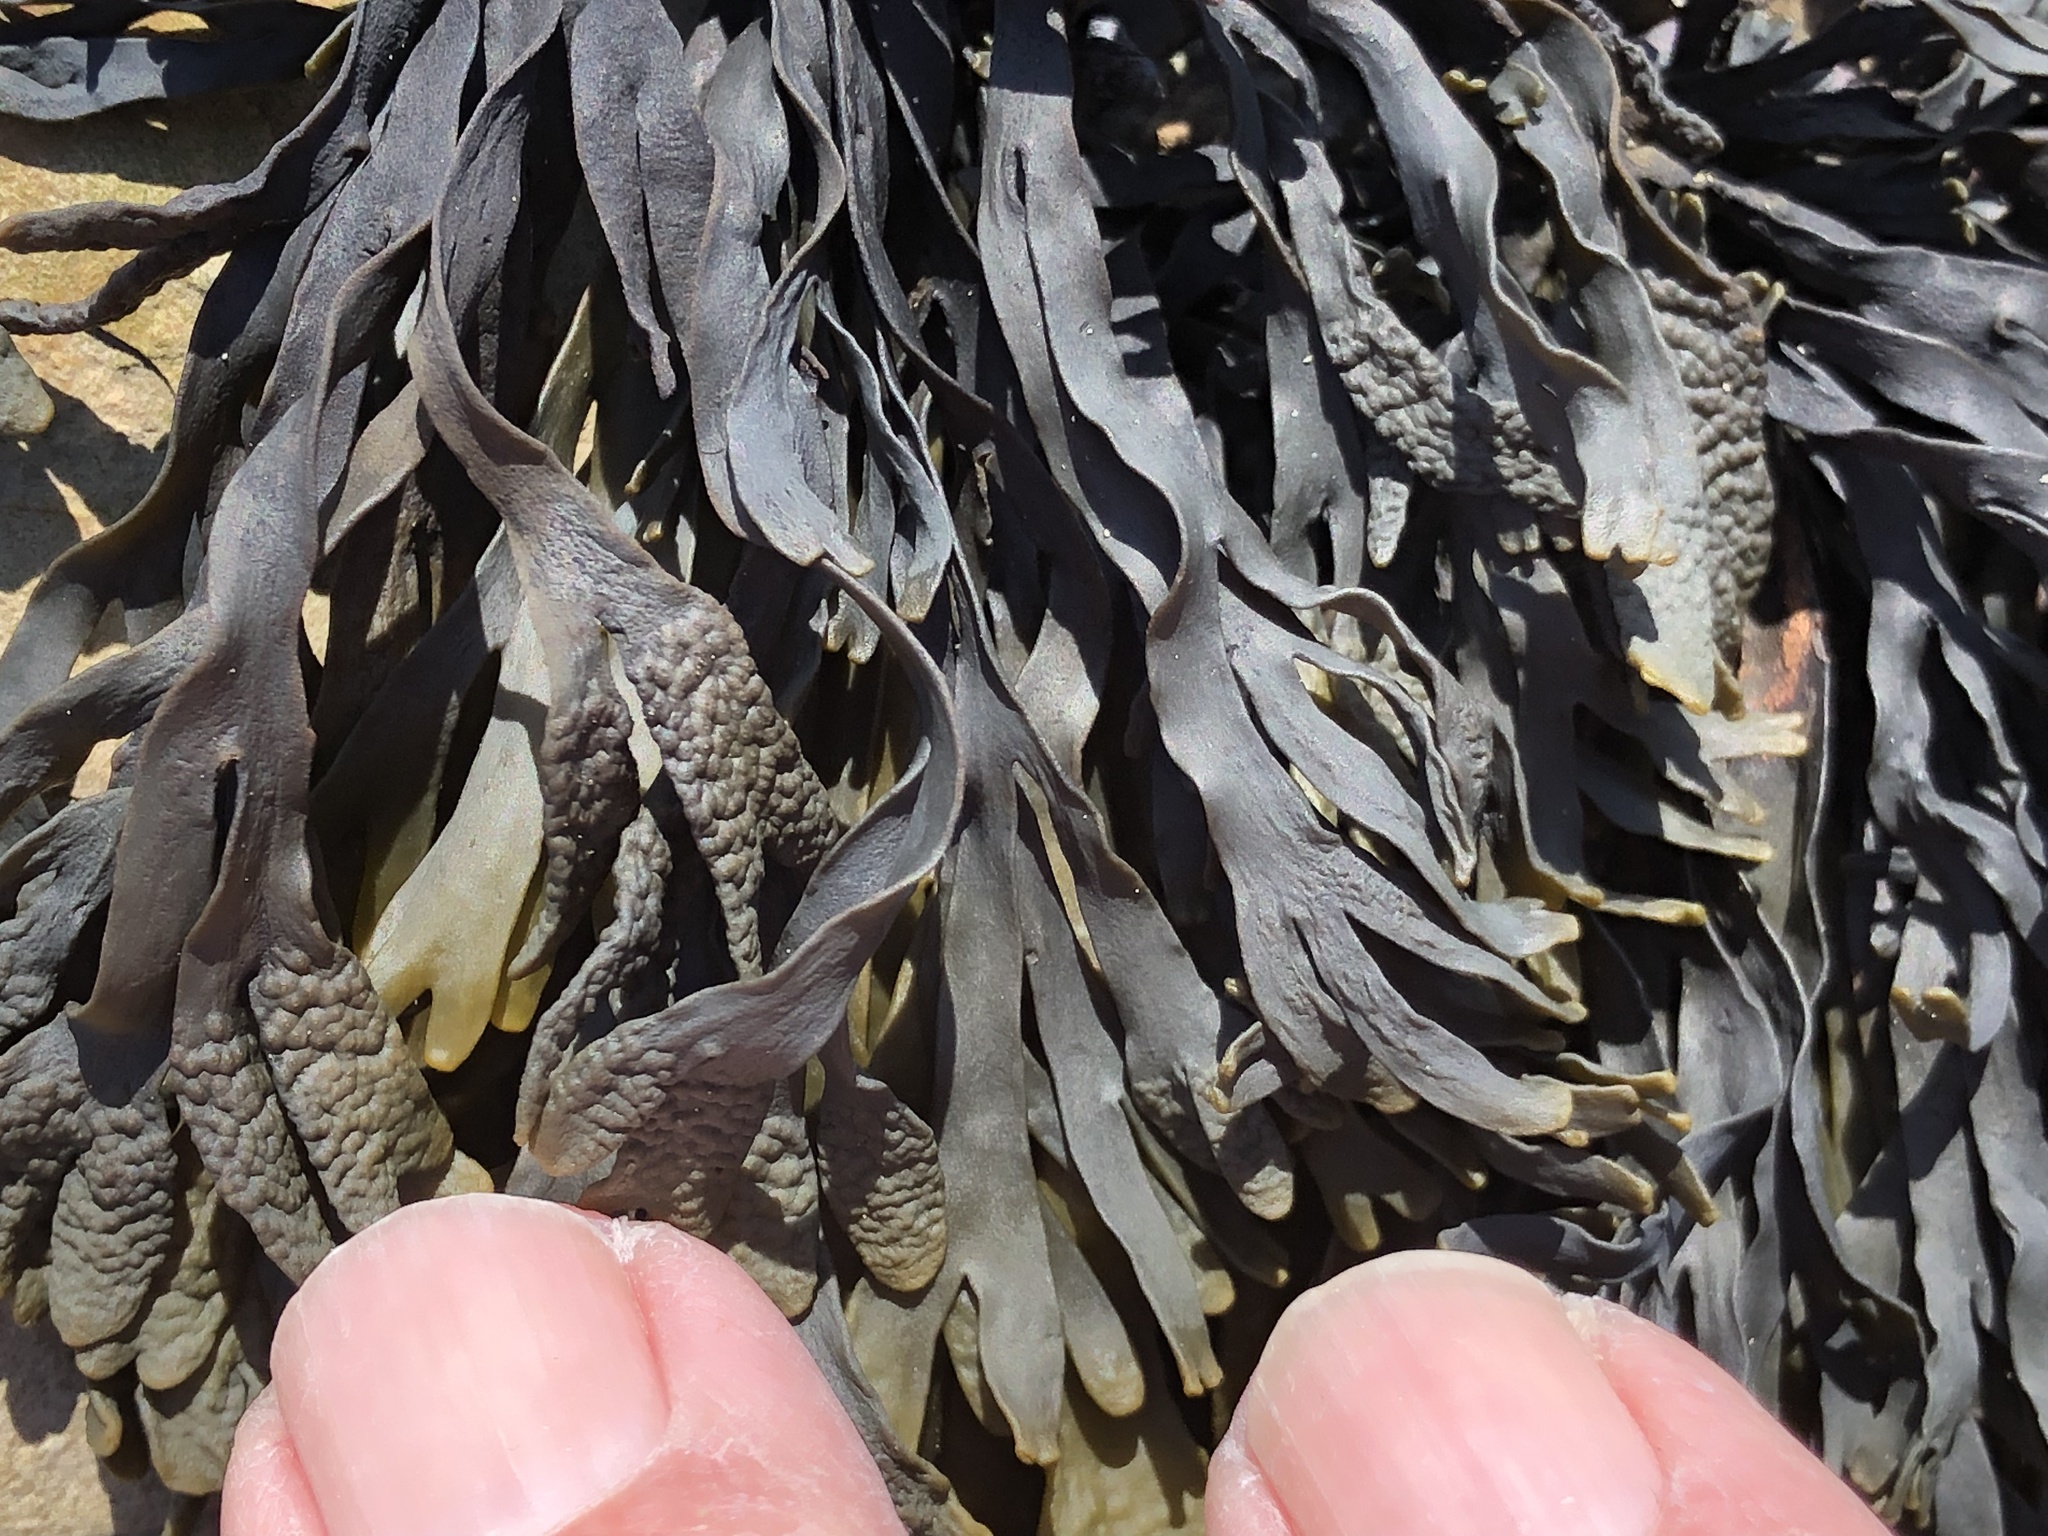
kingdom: Chromista
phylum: Ochrophyta
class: Phaeophyceae
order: Fucales
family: Fucaceae
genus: Pelvetiopsis
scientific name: Pelvetiopsis limitata
